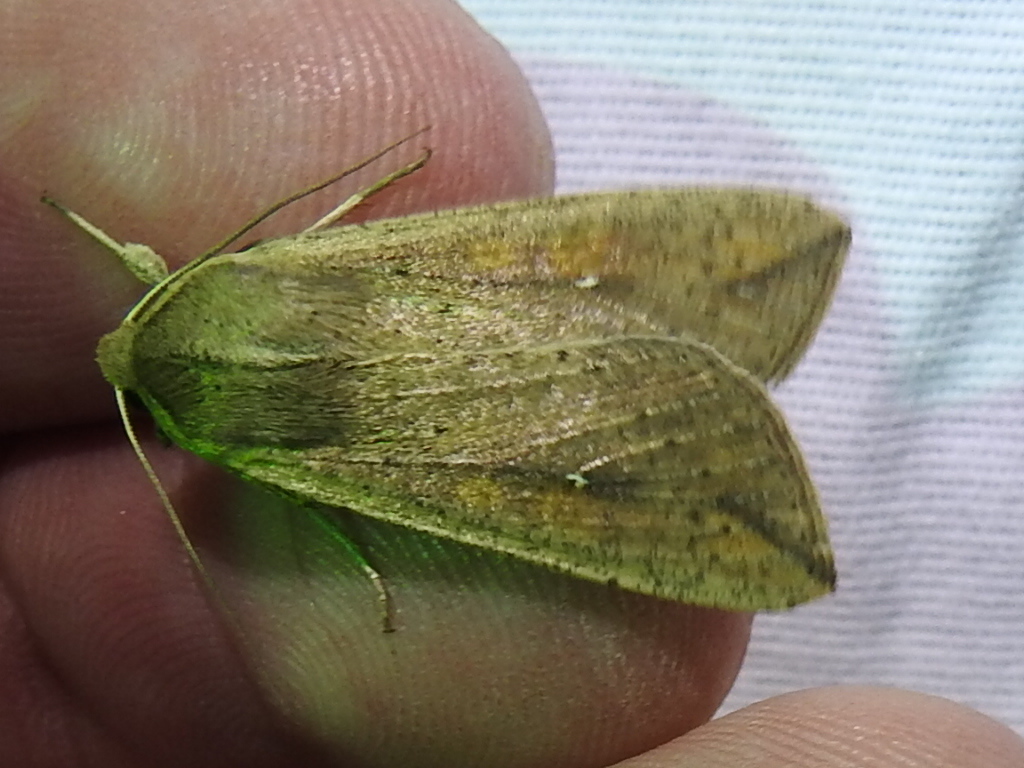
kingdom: Animalia
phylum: Arthropoda
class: Insecta
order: Lepidoptera
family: Noctuidae
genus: Mythimna
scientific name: Mythimna unipuncta
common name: White-speck
